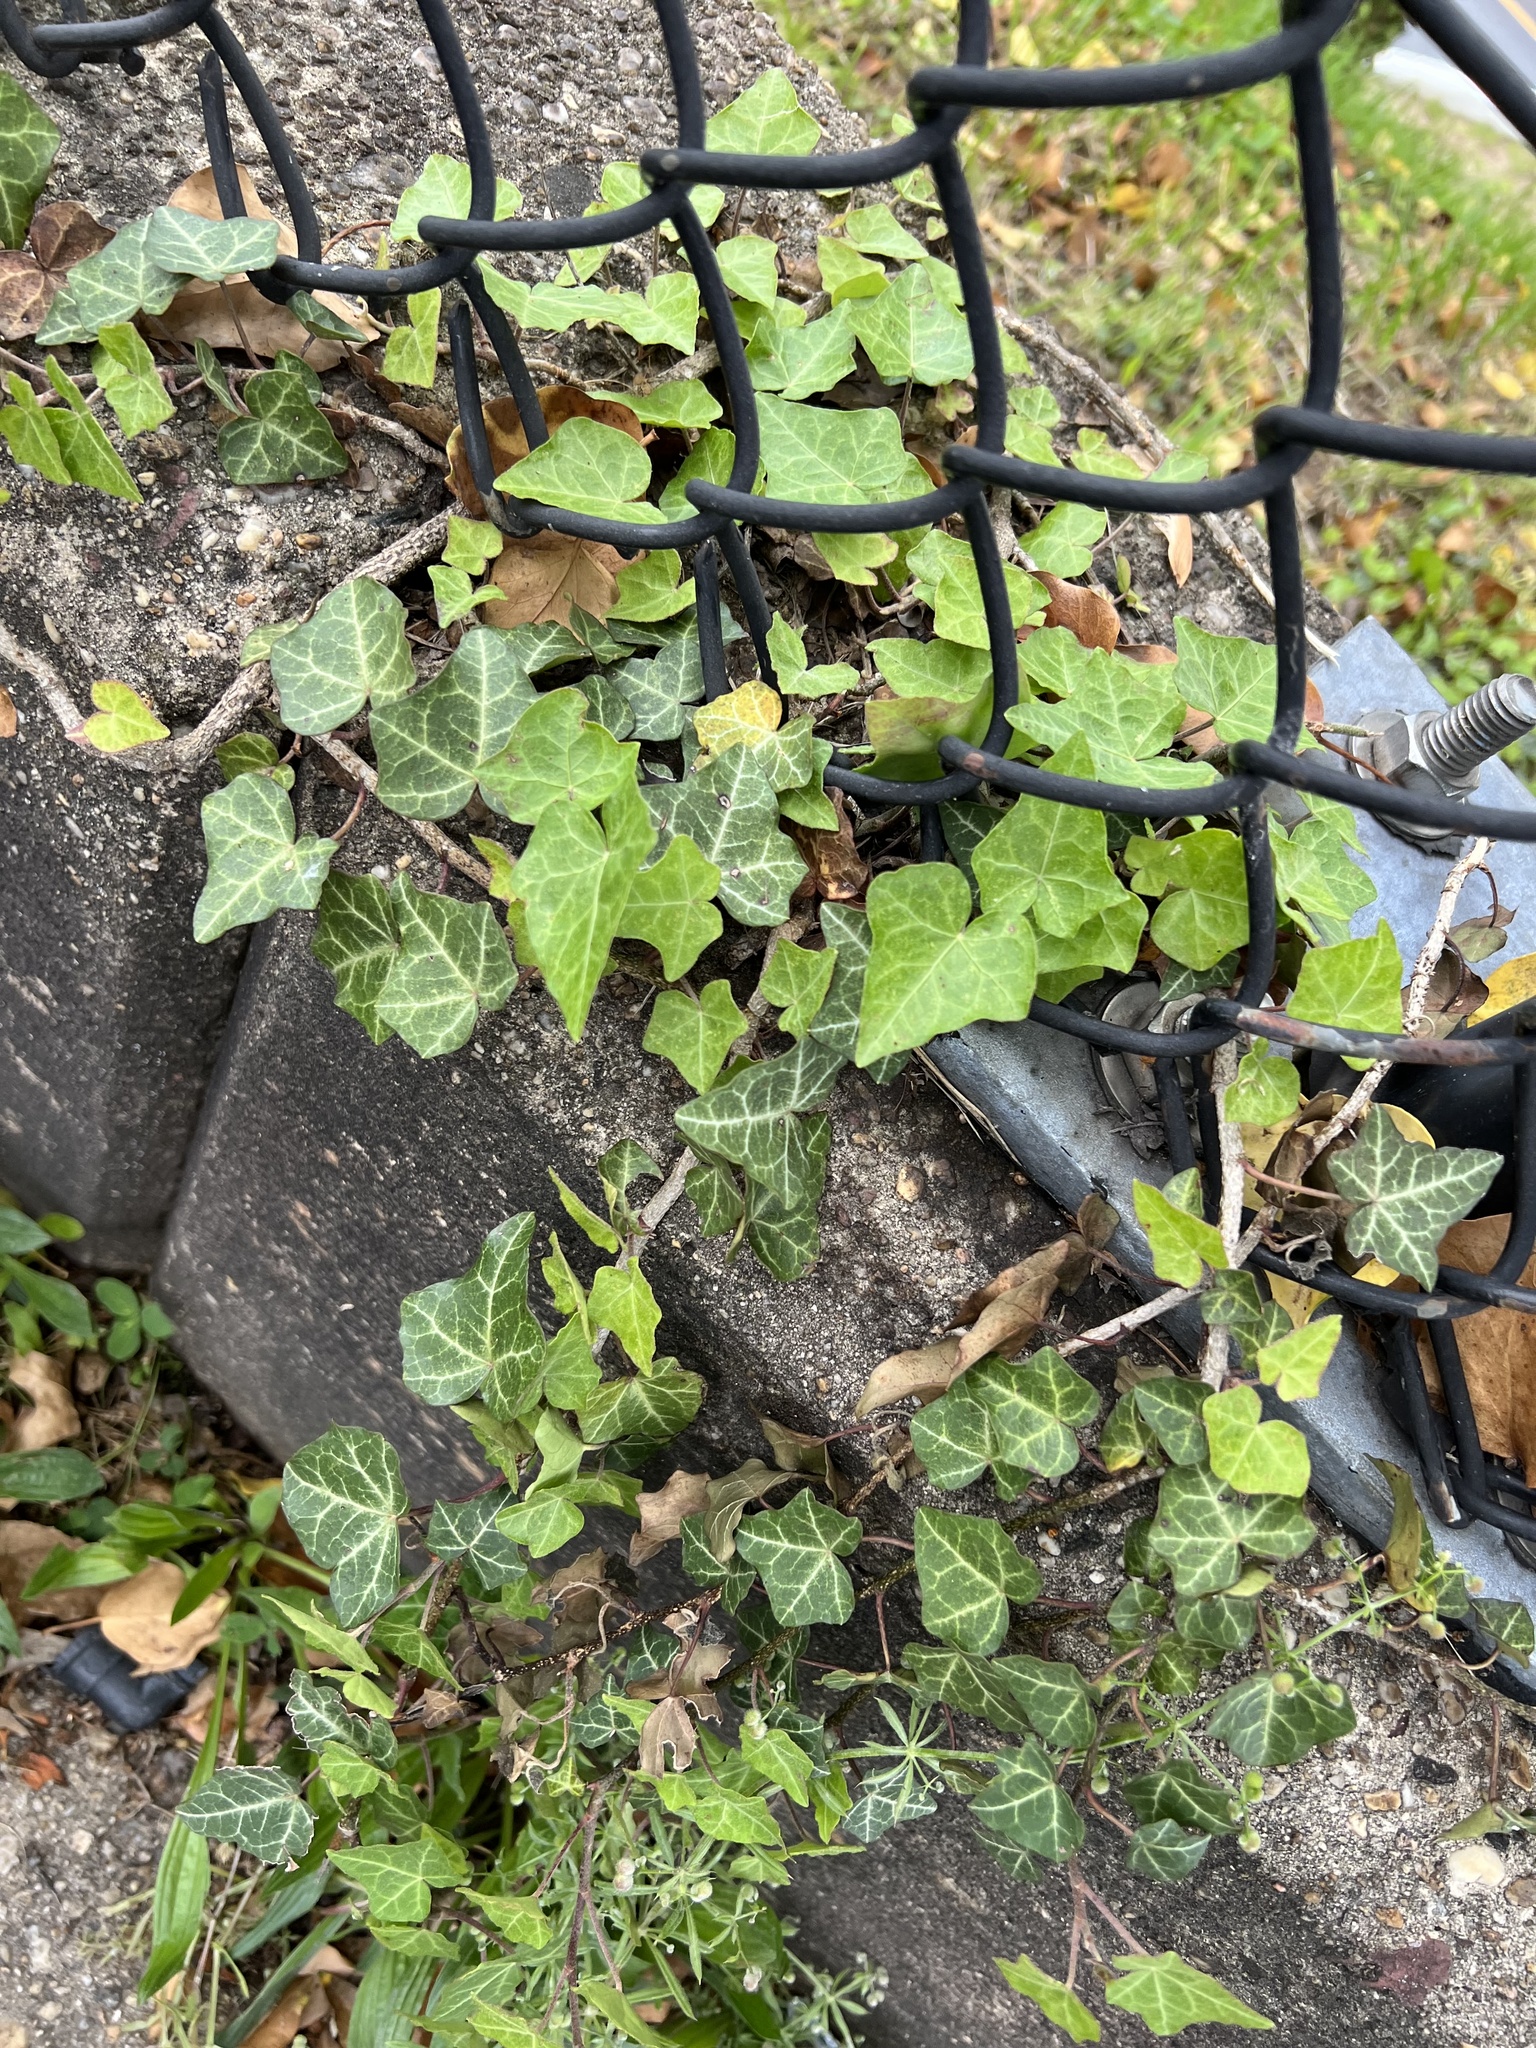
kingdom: Plantae
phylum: Tracheophyta
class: Magnoliopsida
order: Apiales
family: Araliaceae
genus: Hedera
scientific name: Hedera helix
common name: Ivy
